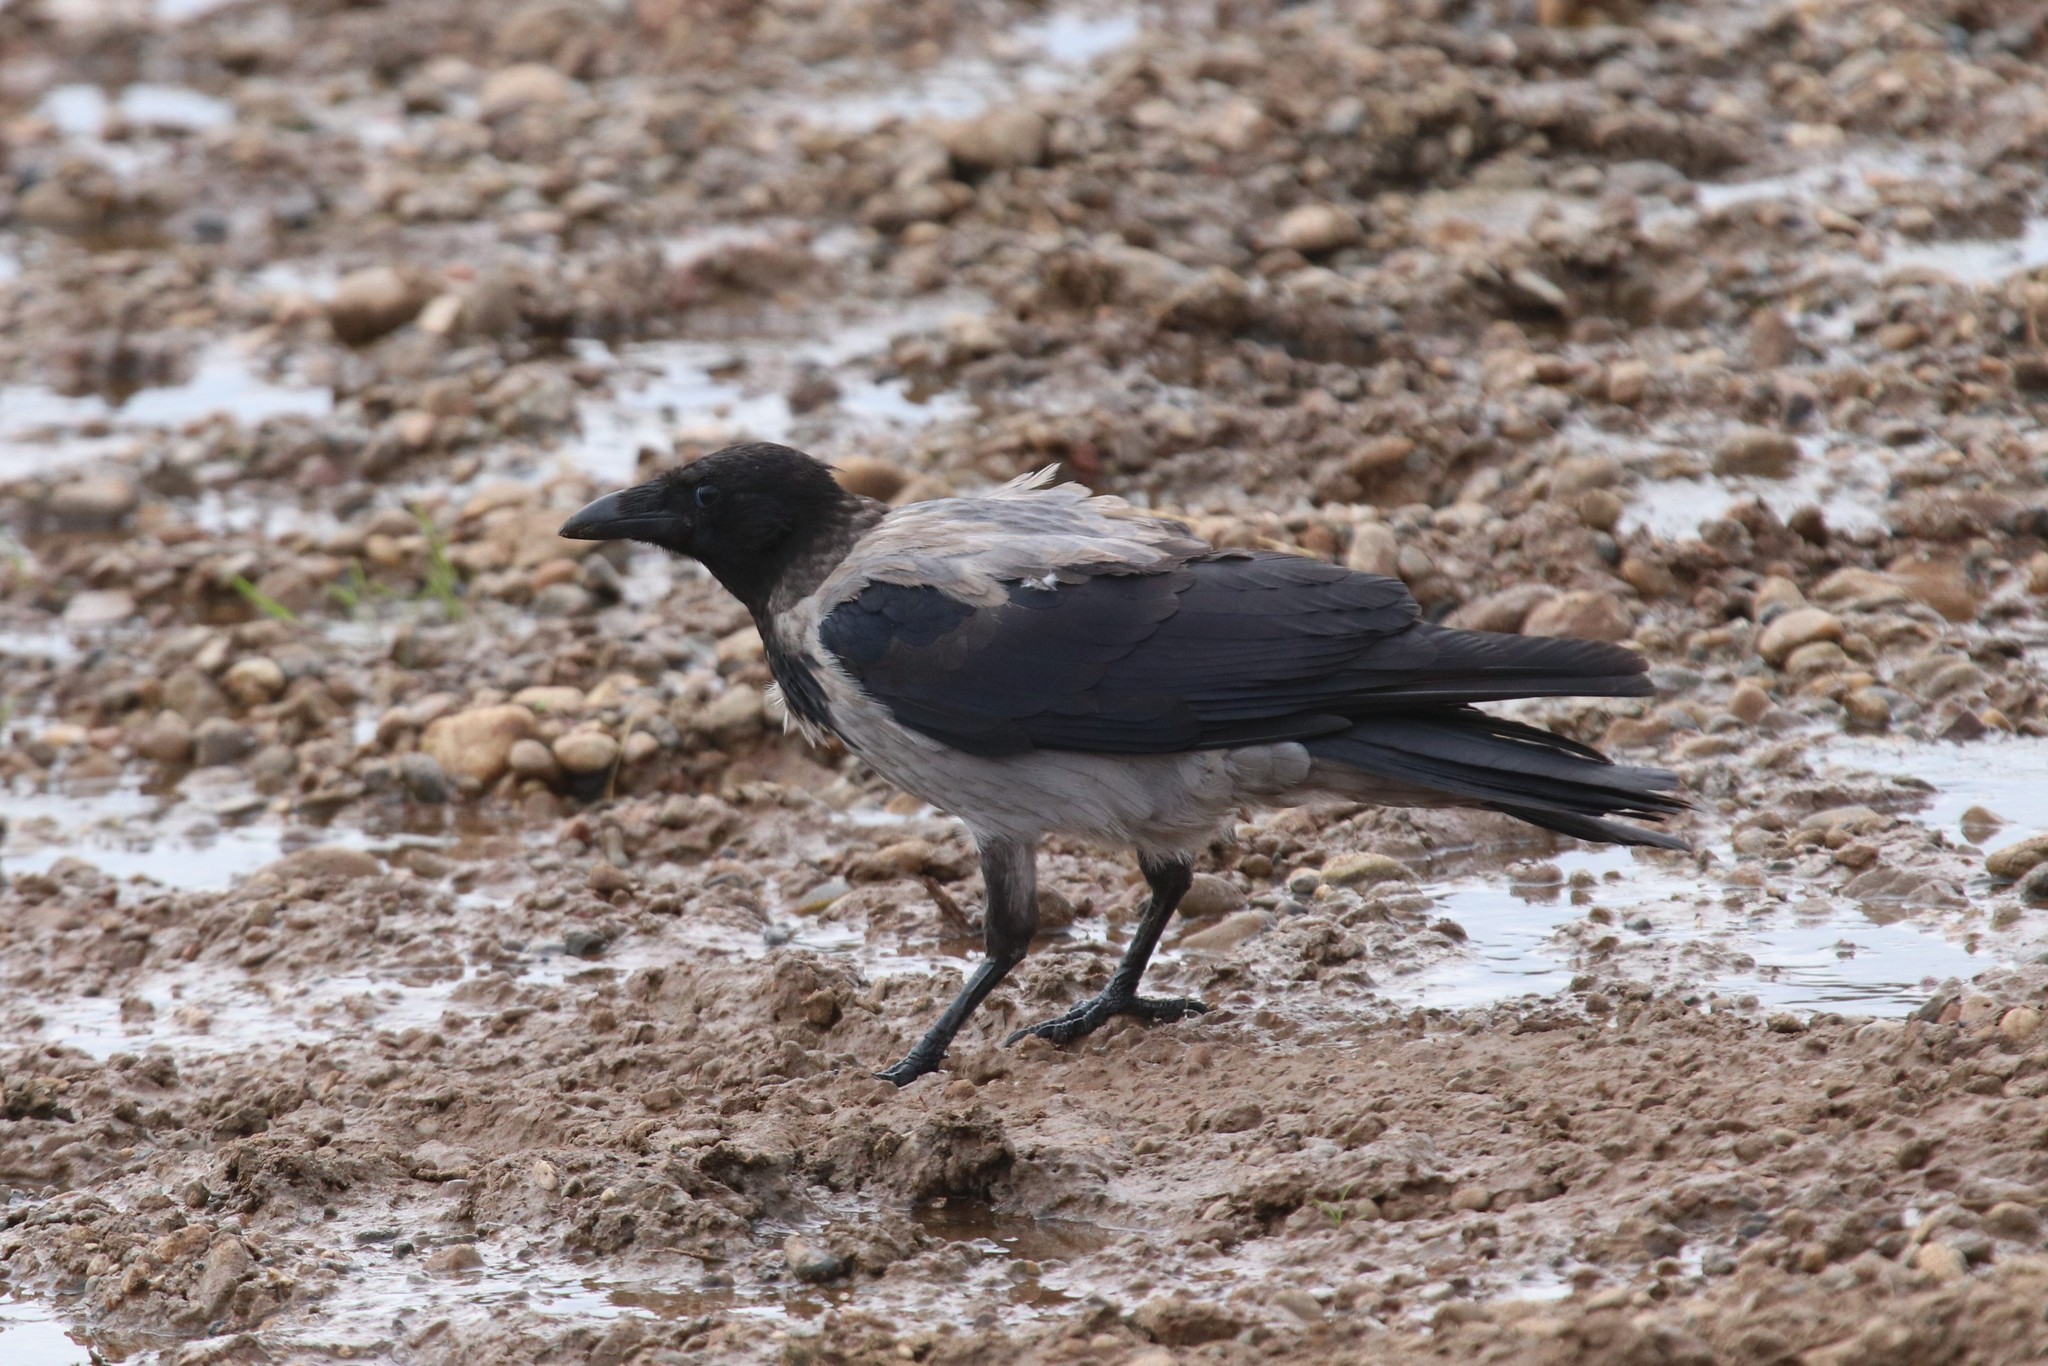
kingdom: Animalia
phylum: Chordata
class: Aves
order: Passeriformes
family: Corvidae
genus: Corvus
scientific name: Corvus cornix
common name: Hooded crow
